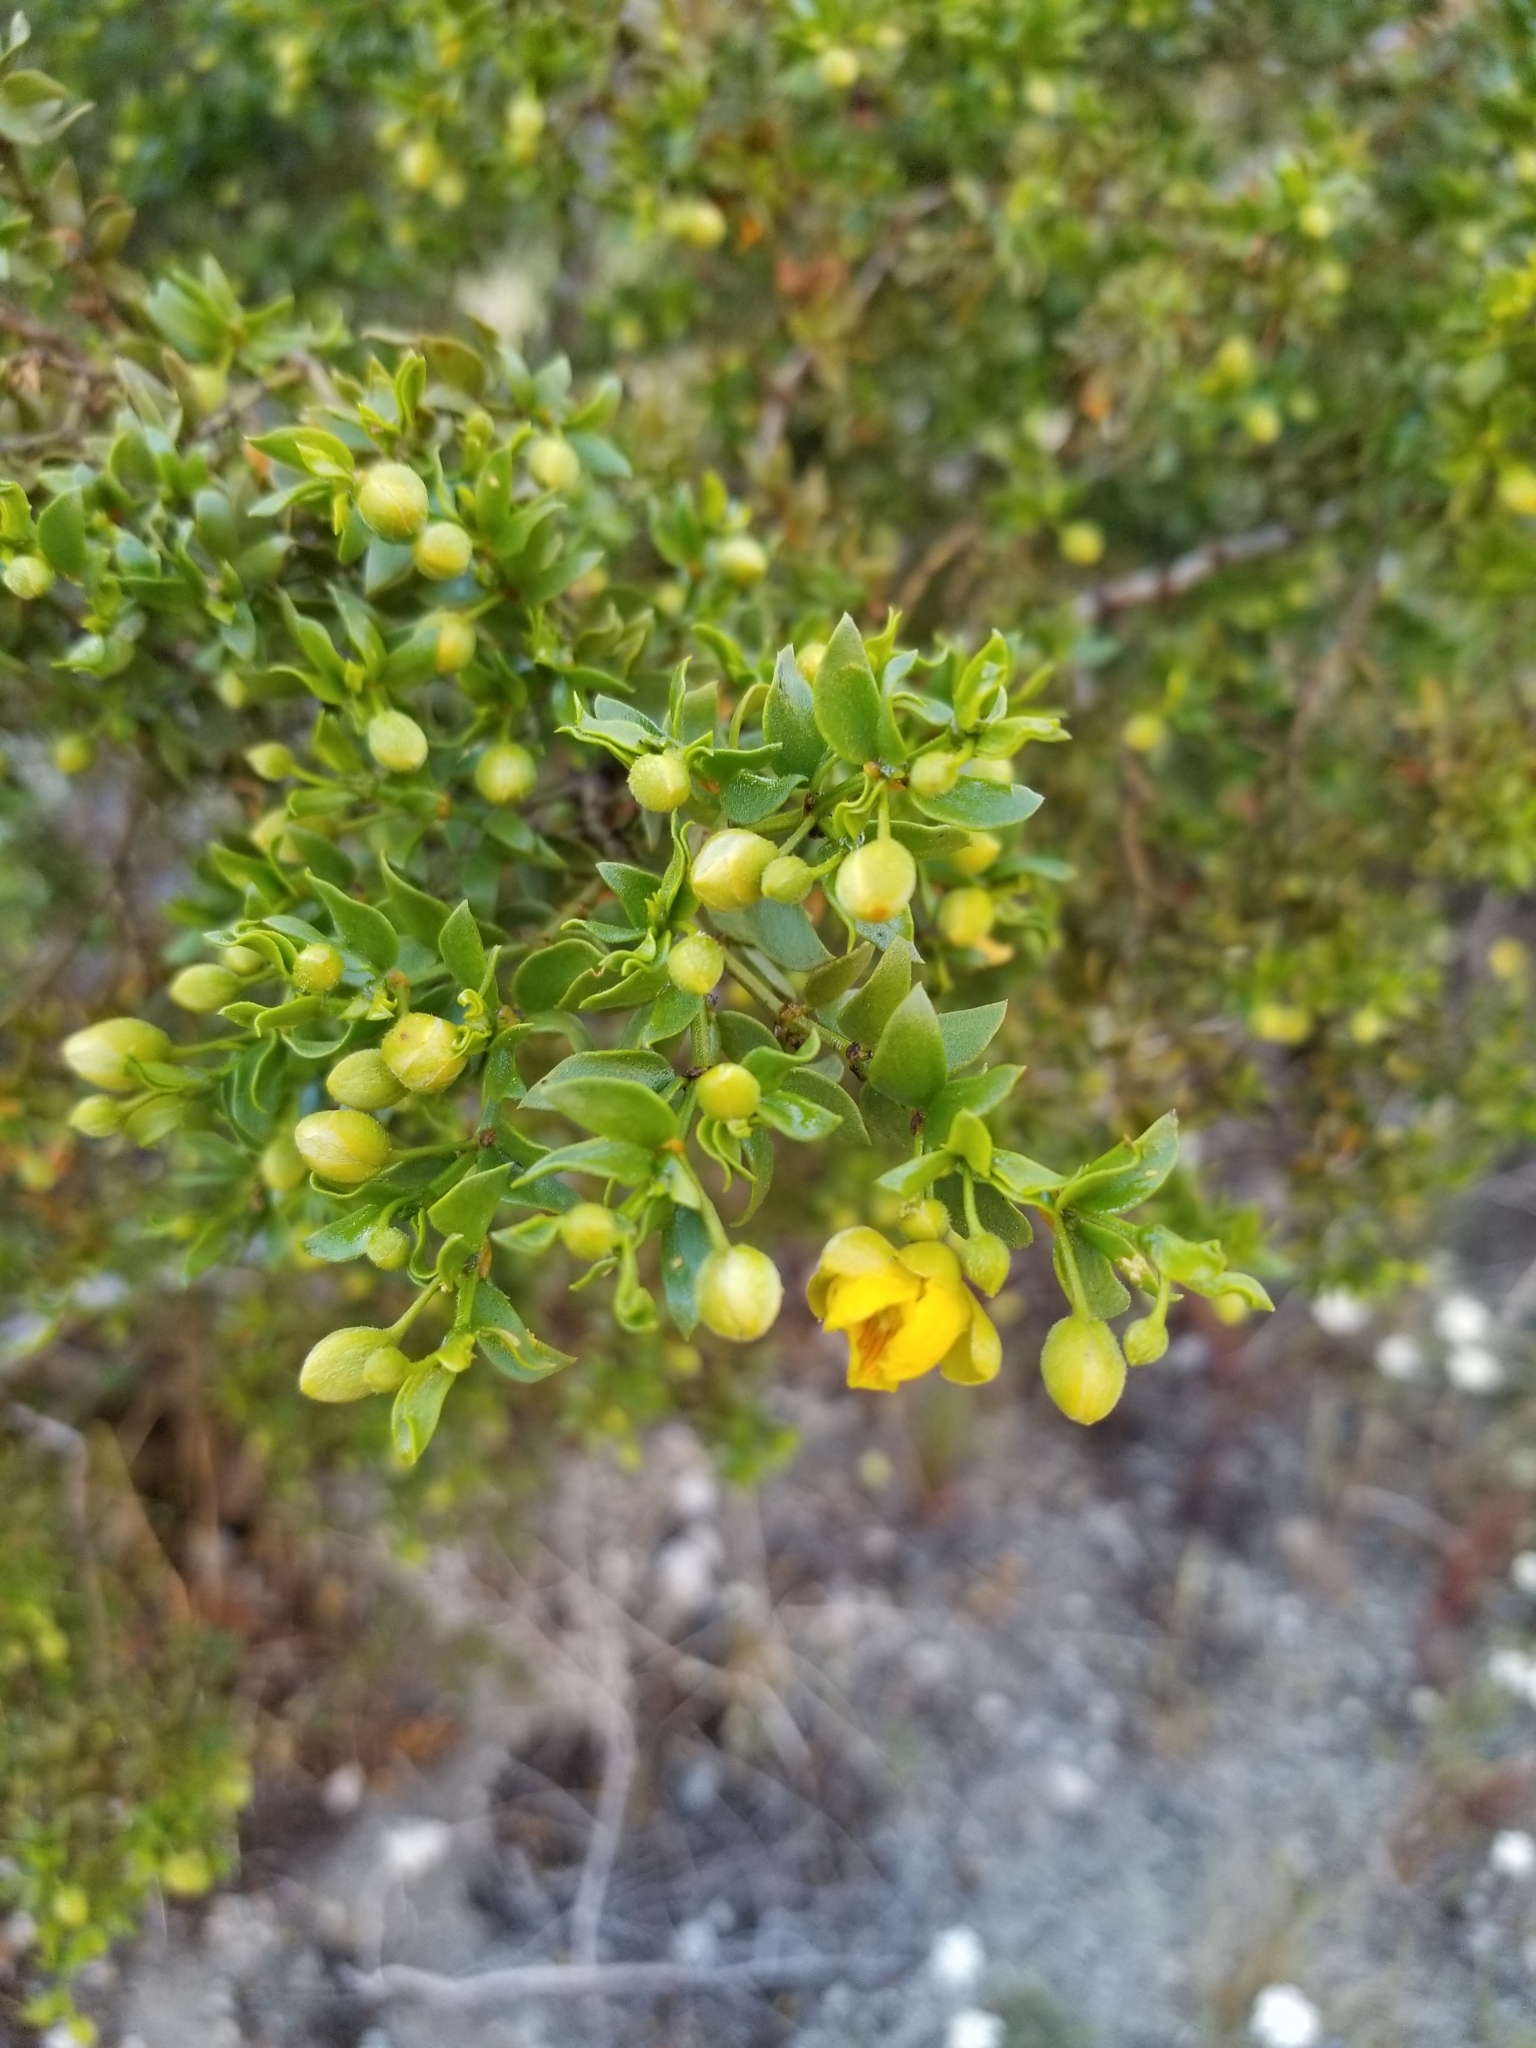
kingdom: Plantae
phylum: Tracheophyta
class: Magnoliopsida
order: Zygophyllales
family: Zygophyllaceae
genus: Larrea
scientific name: Larrea tridentata
